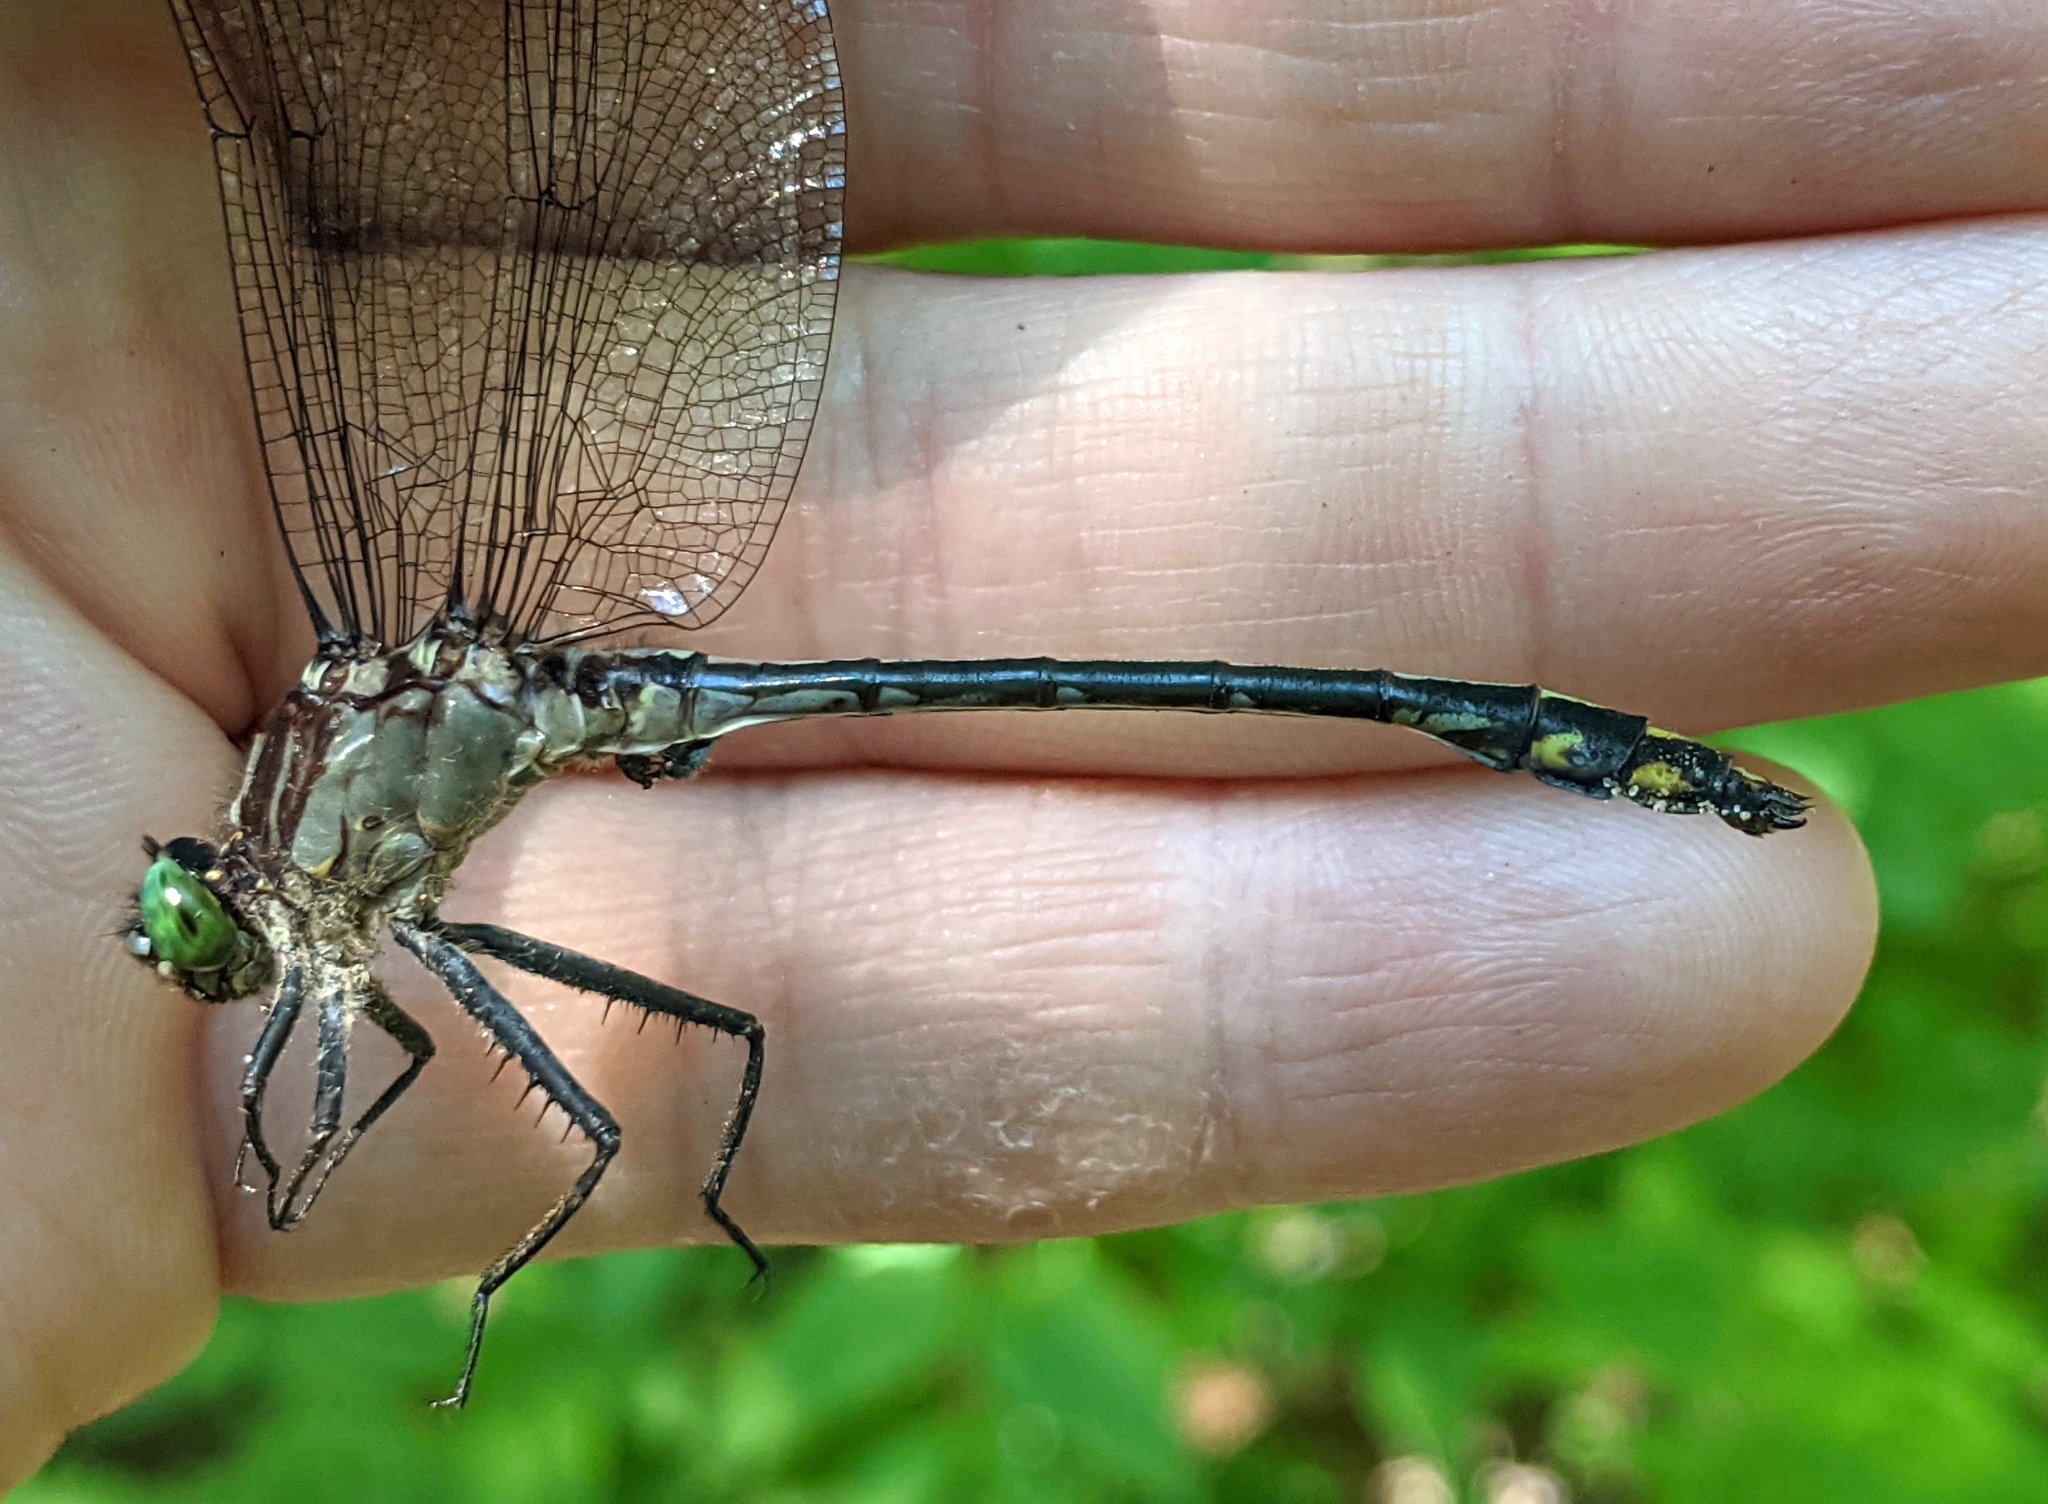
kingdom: Animalia
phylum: Arthropoda
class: Insecta
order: Odonata
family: Gomphidae
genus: Dromogomphus
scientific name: Dromogomphus spinosus
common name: Black-shouldered spinyleg
